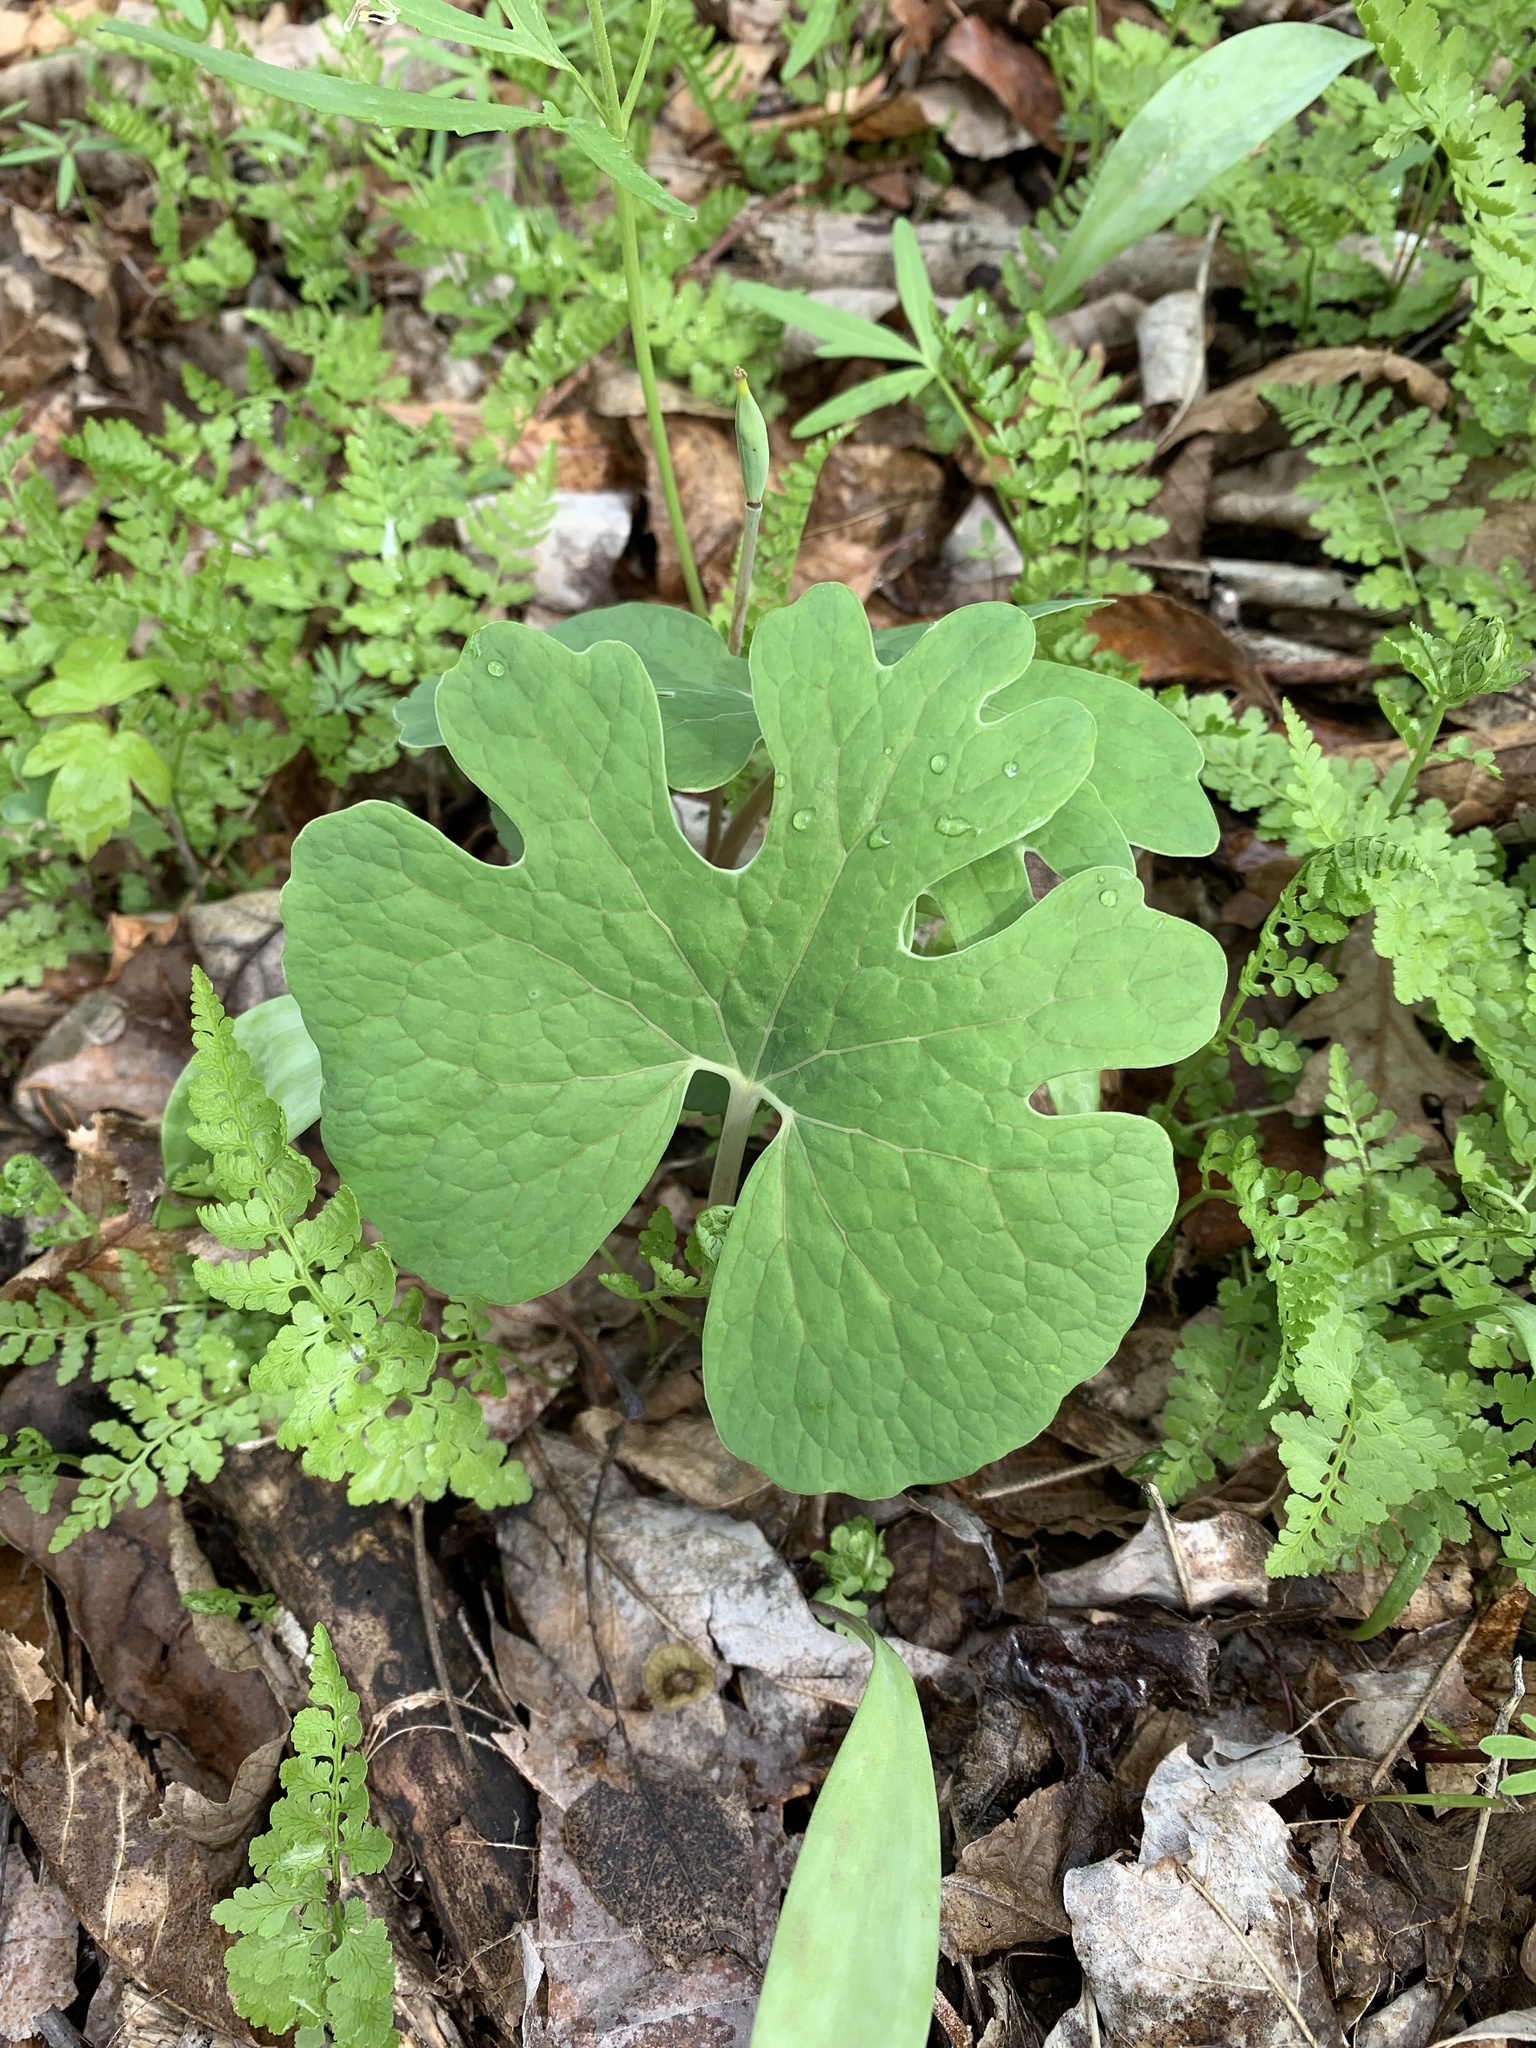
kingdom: Plantae
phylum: Tracheophyta
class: Magnoliopsida
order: Ranunculales
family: Papaveraceae
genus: Sanguinaria
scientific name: Sanguinaria canadensis
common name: Bloodroot
